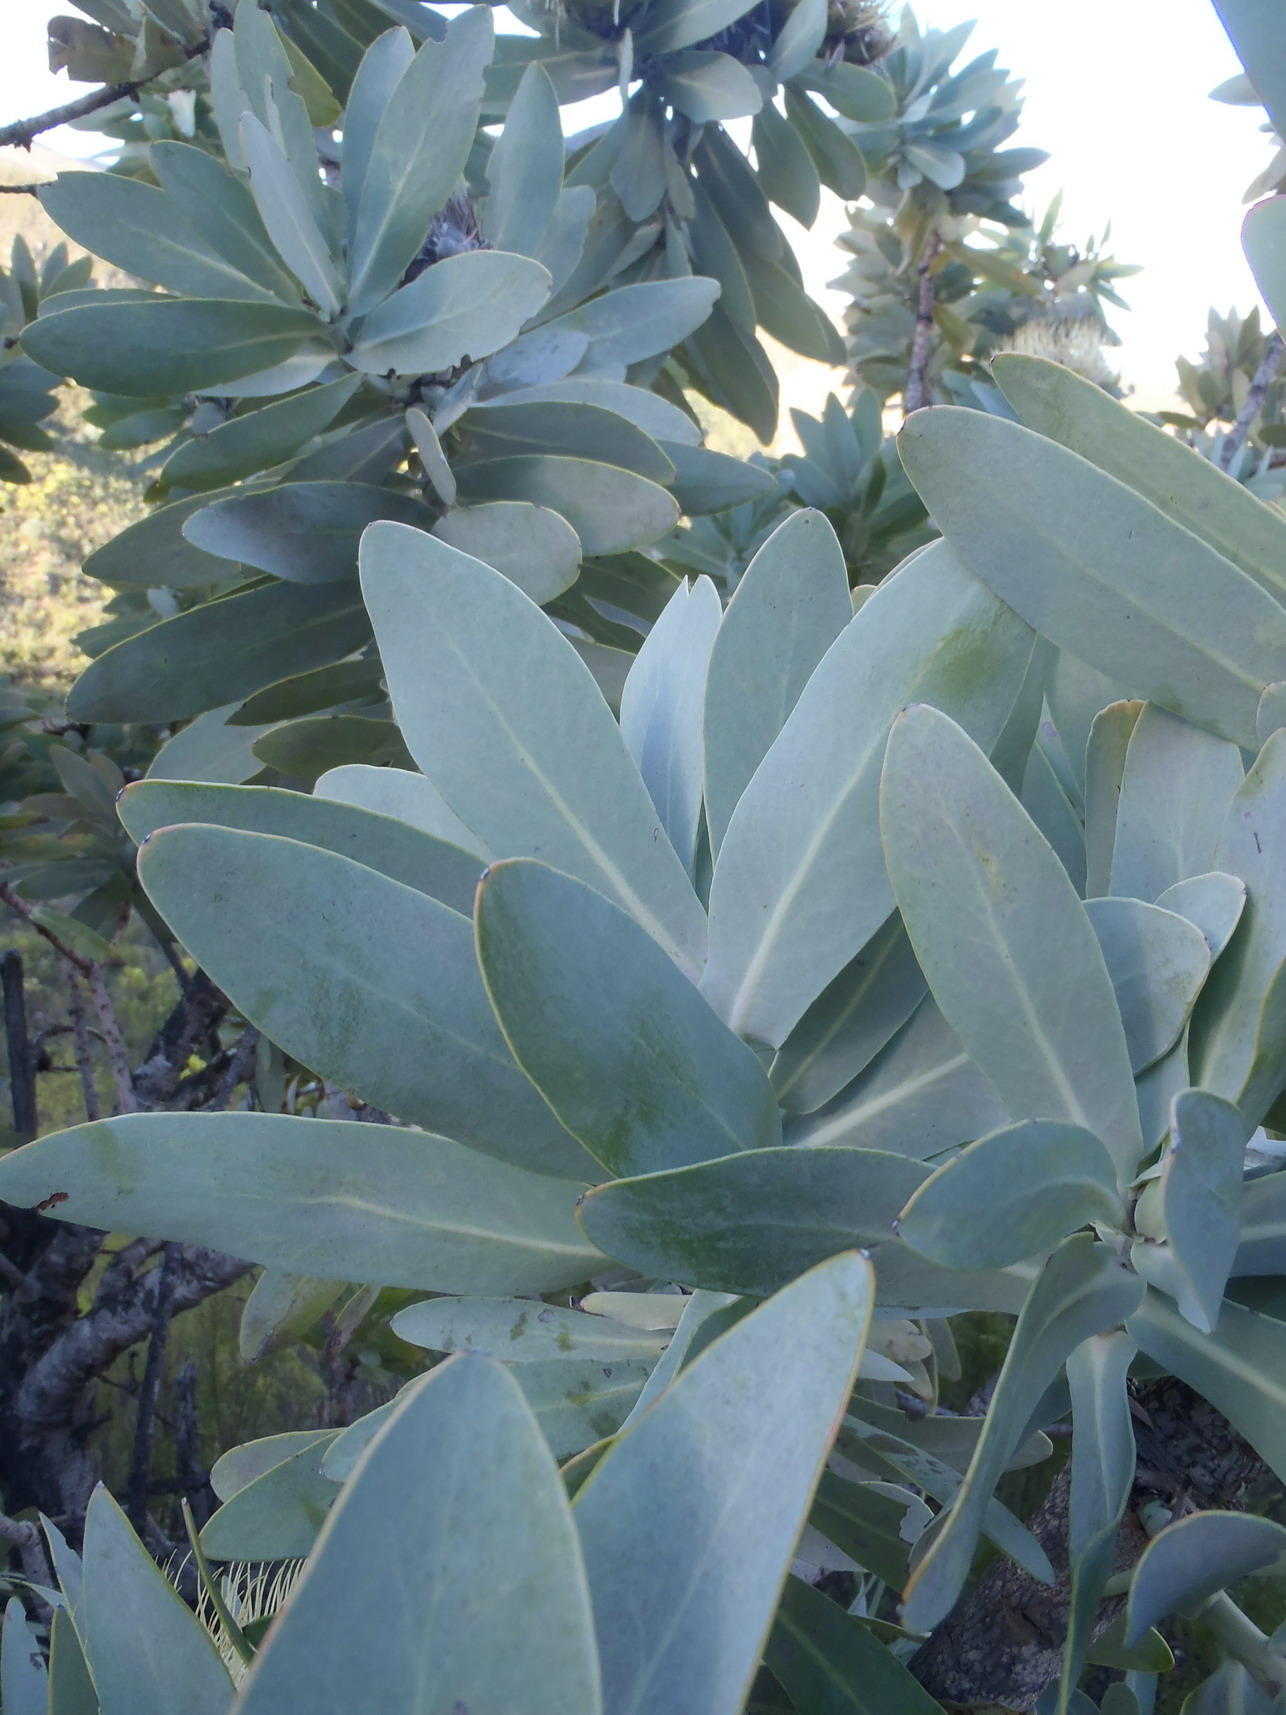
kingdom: Plantae
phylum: Tracheophyta
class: Magnoliopsida
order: Proteales
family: Proteaceae
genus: Protea
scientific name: Protea nitida
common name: Tree protea
